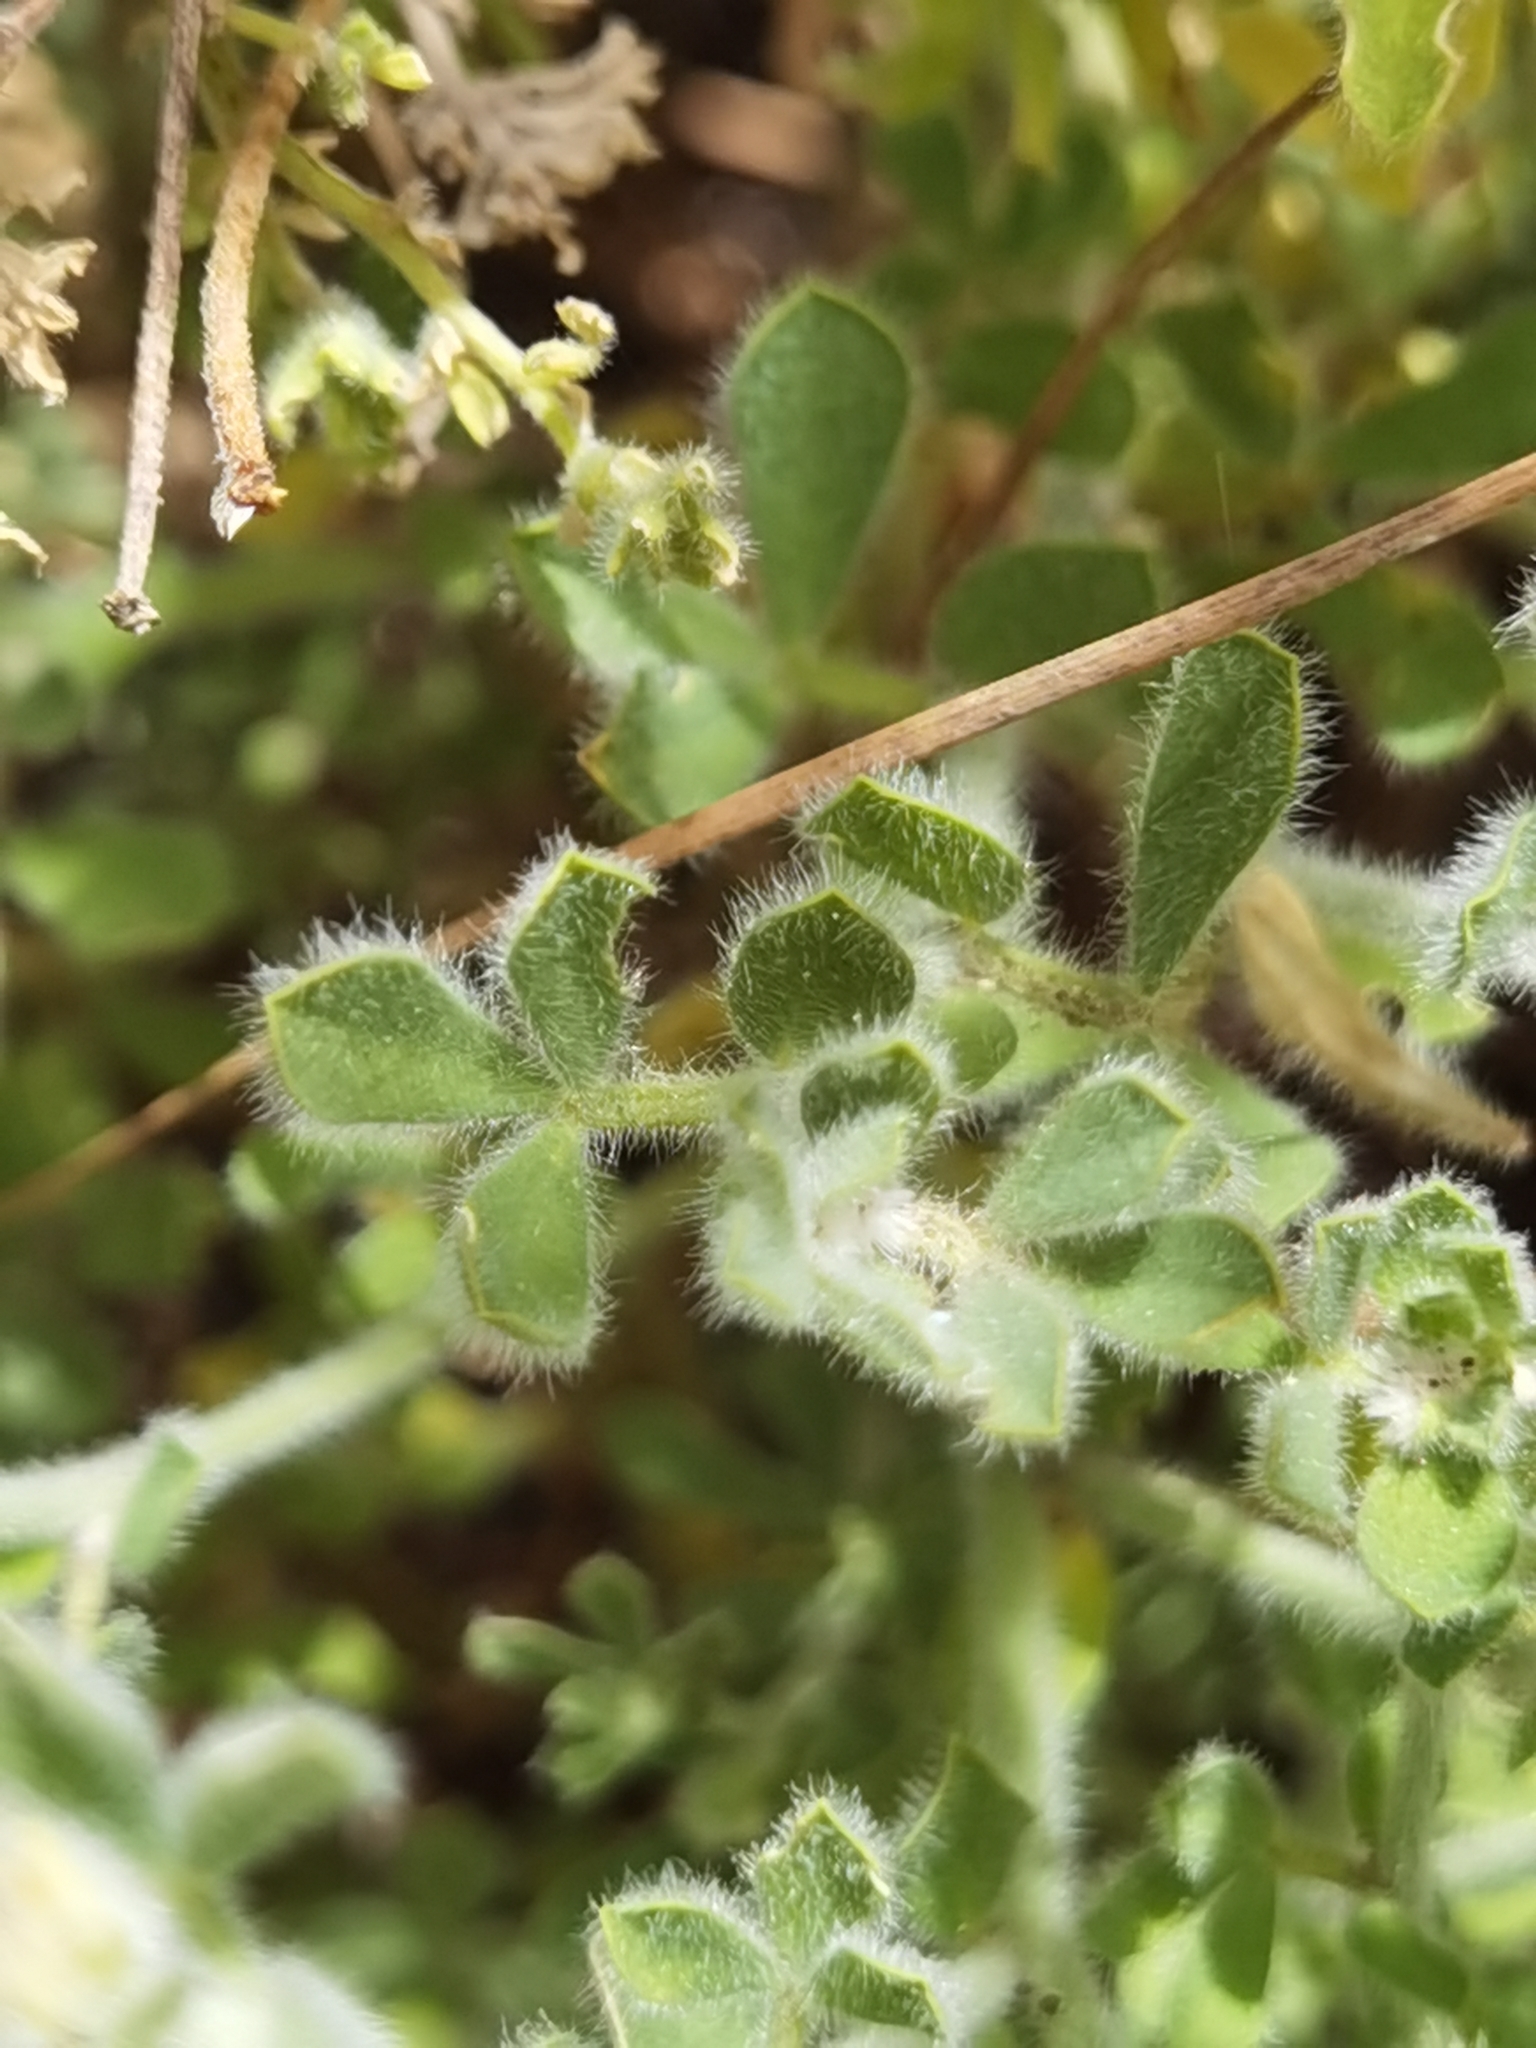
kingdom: Plantae
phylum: Tracheophyta
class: Magnoliopsida
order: Fabales
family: Fabaceae
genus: Lotus
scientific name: Lotus campylocladus
